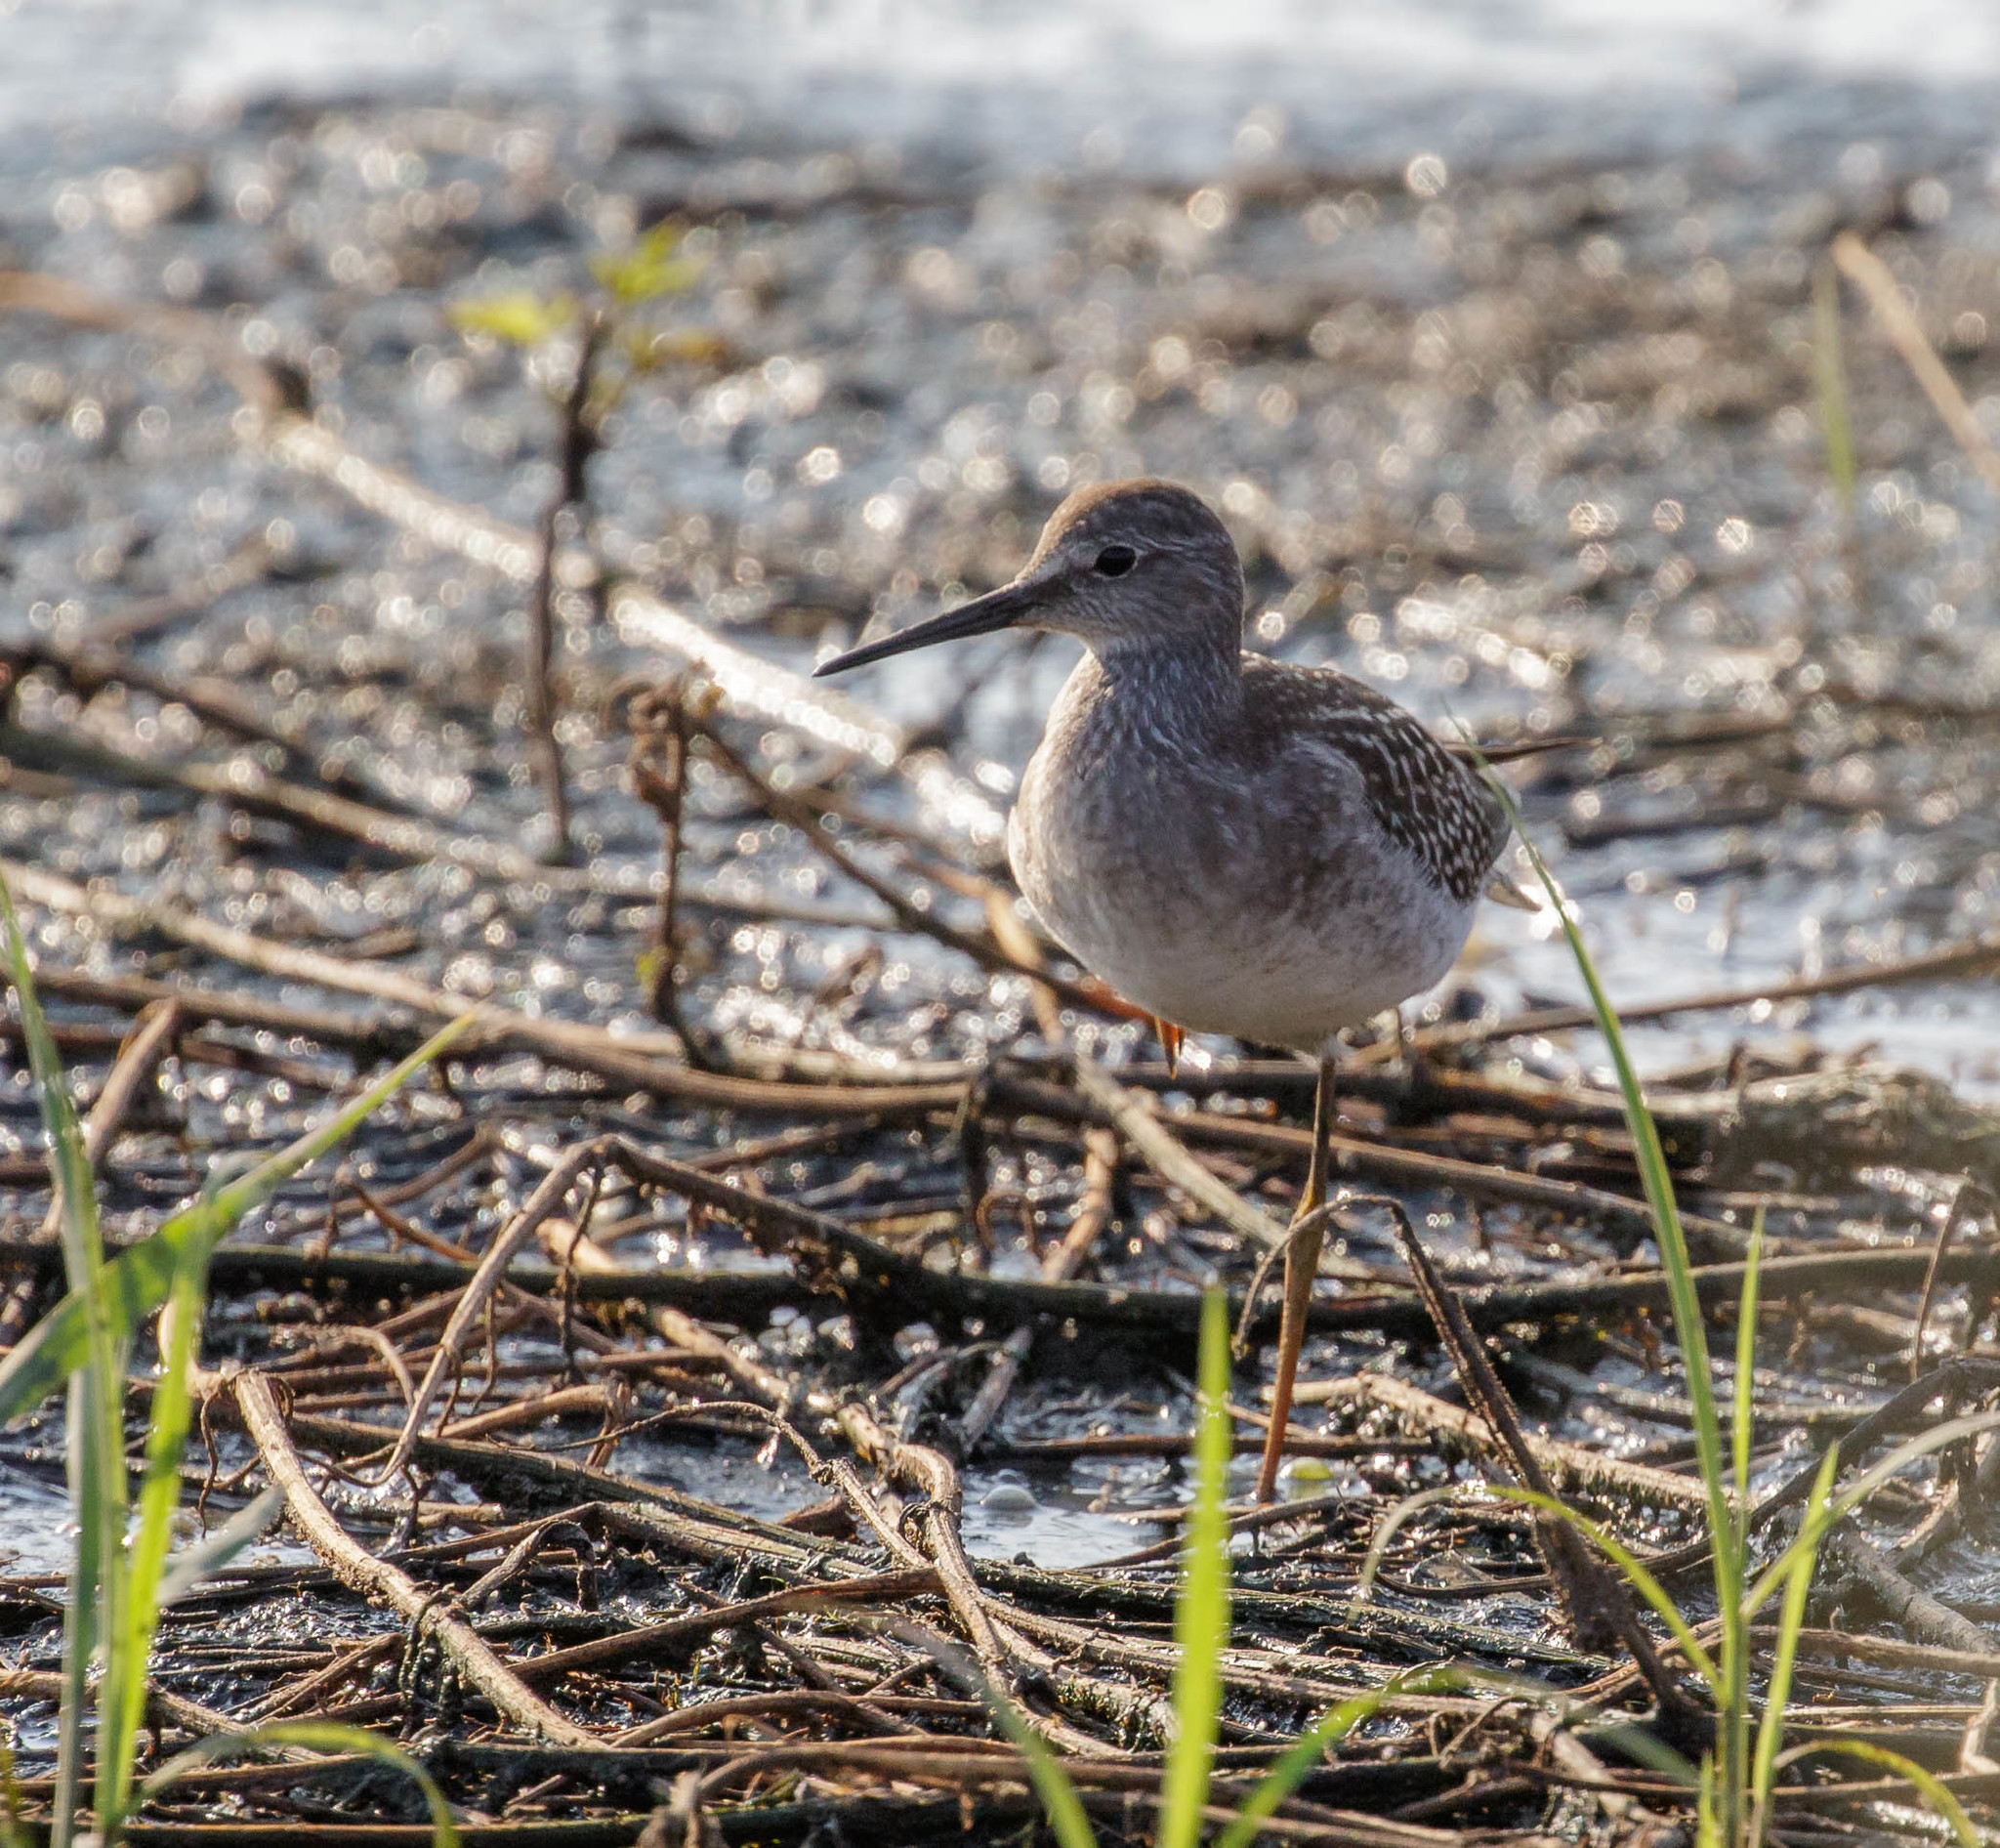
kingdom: Animalia
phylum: Chordata
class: Aves
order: Charadriiformes
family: Scolopacidae
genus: Tringa
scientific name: Tringa flavipes
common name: Lesser yellowlegs
